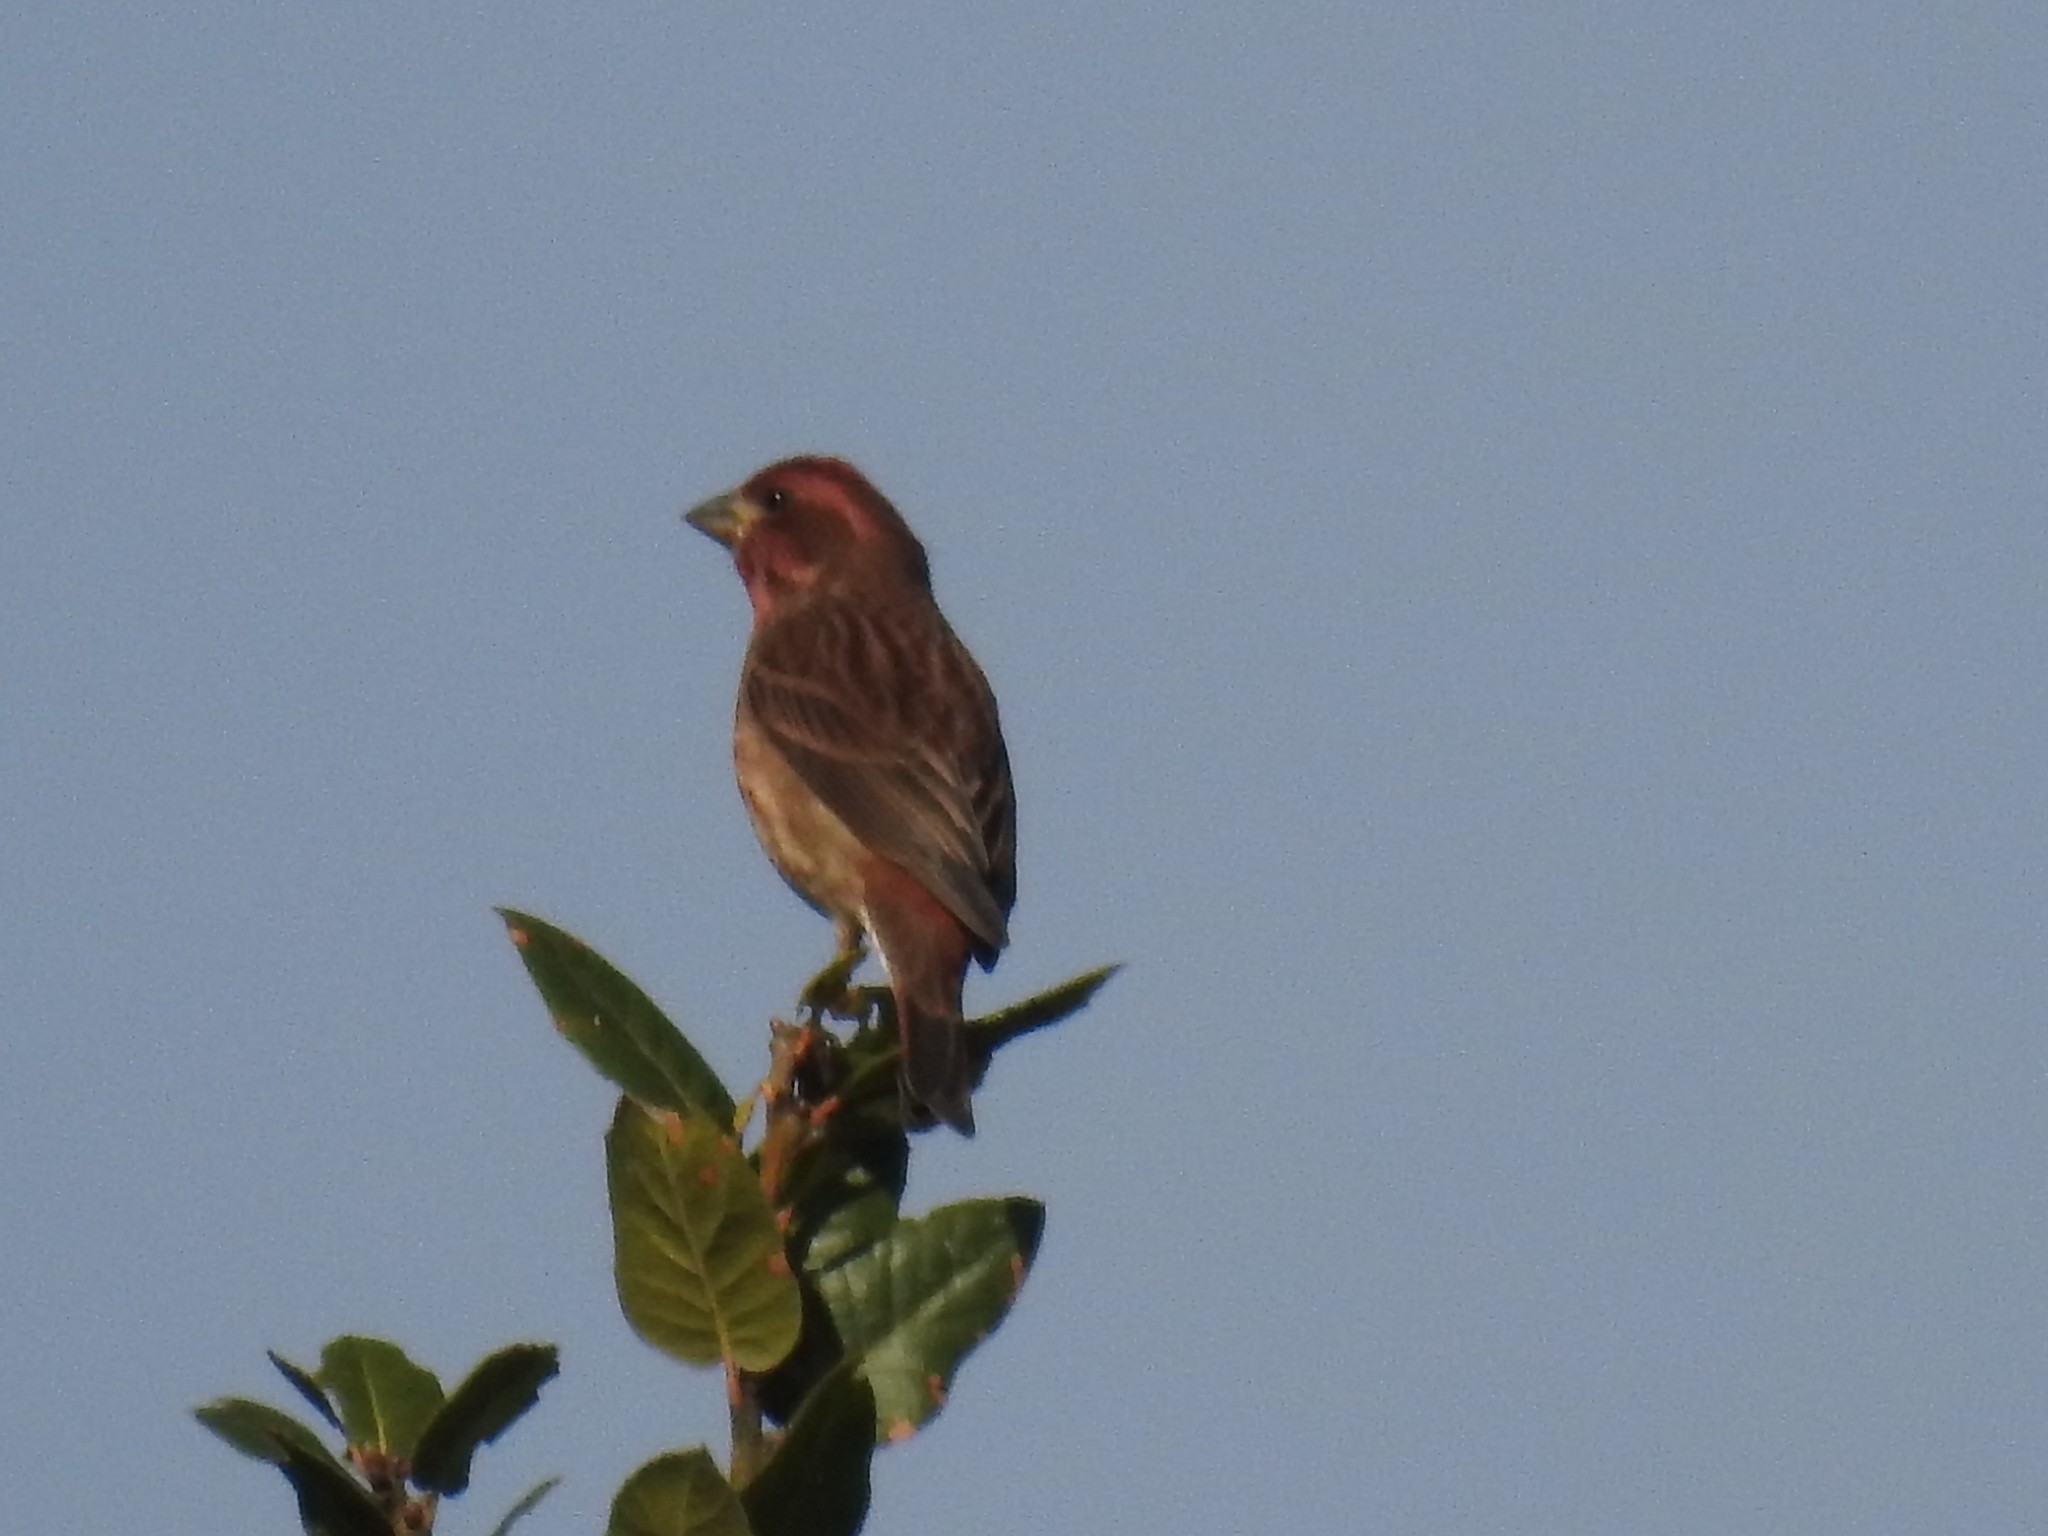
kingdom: Animalia
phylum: Chordata
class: Aves
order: Passeriformes
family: Fringillidae
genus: Haemorhous
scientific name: Haemorhous purpureus
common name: Purple finch
